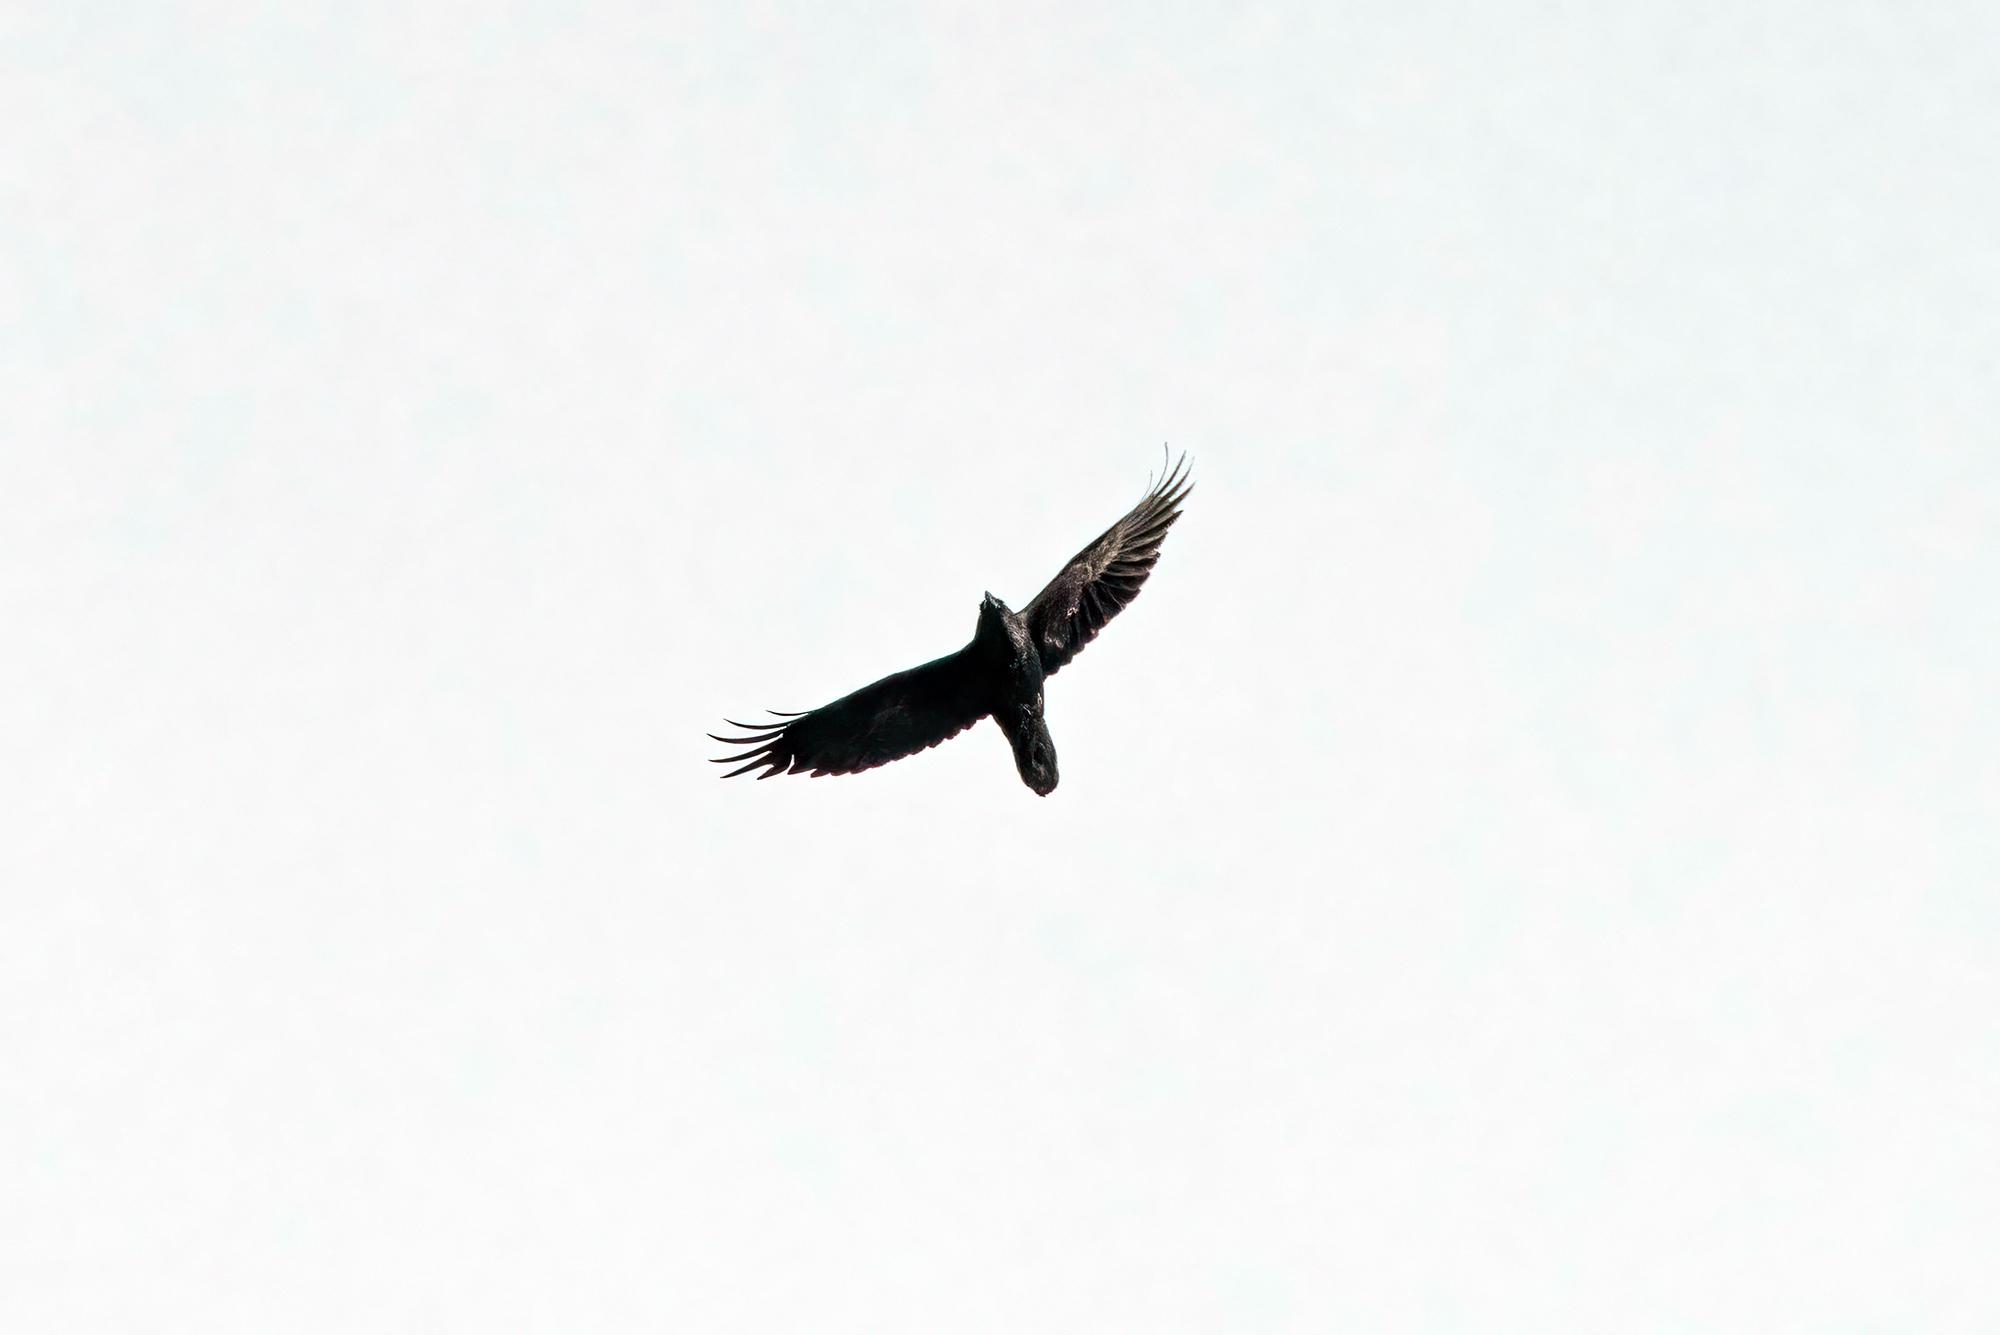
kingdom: Animalia
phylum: Chordata
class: Aves
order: Passeriformes
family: Corvidae
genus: Corvus
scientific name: Corvus corax
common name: Common raven
